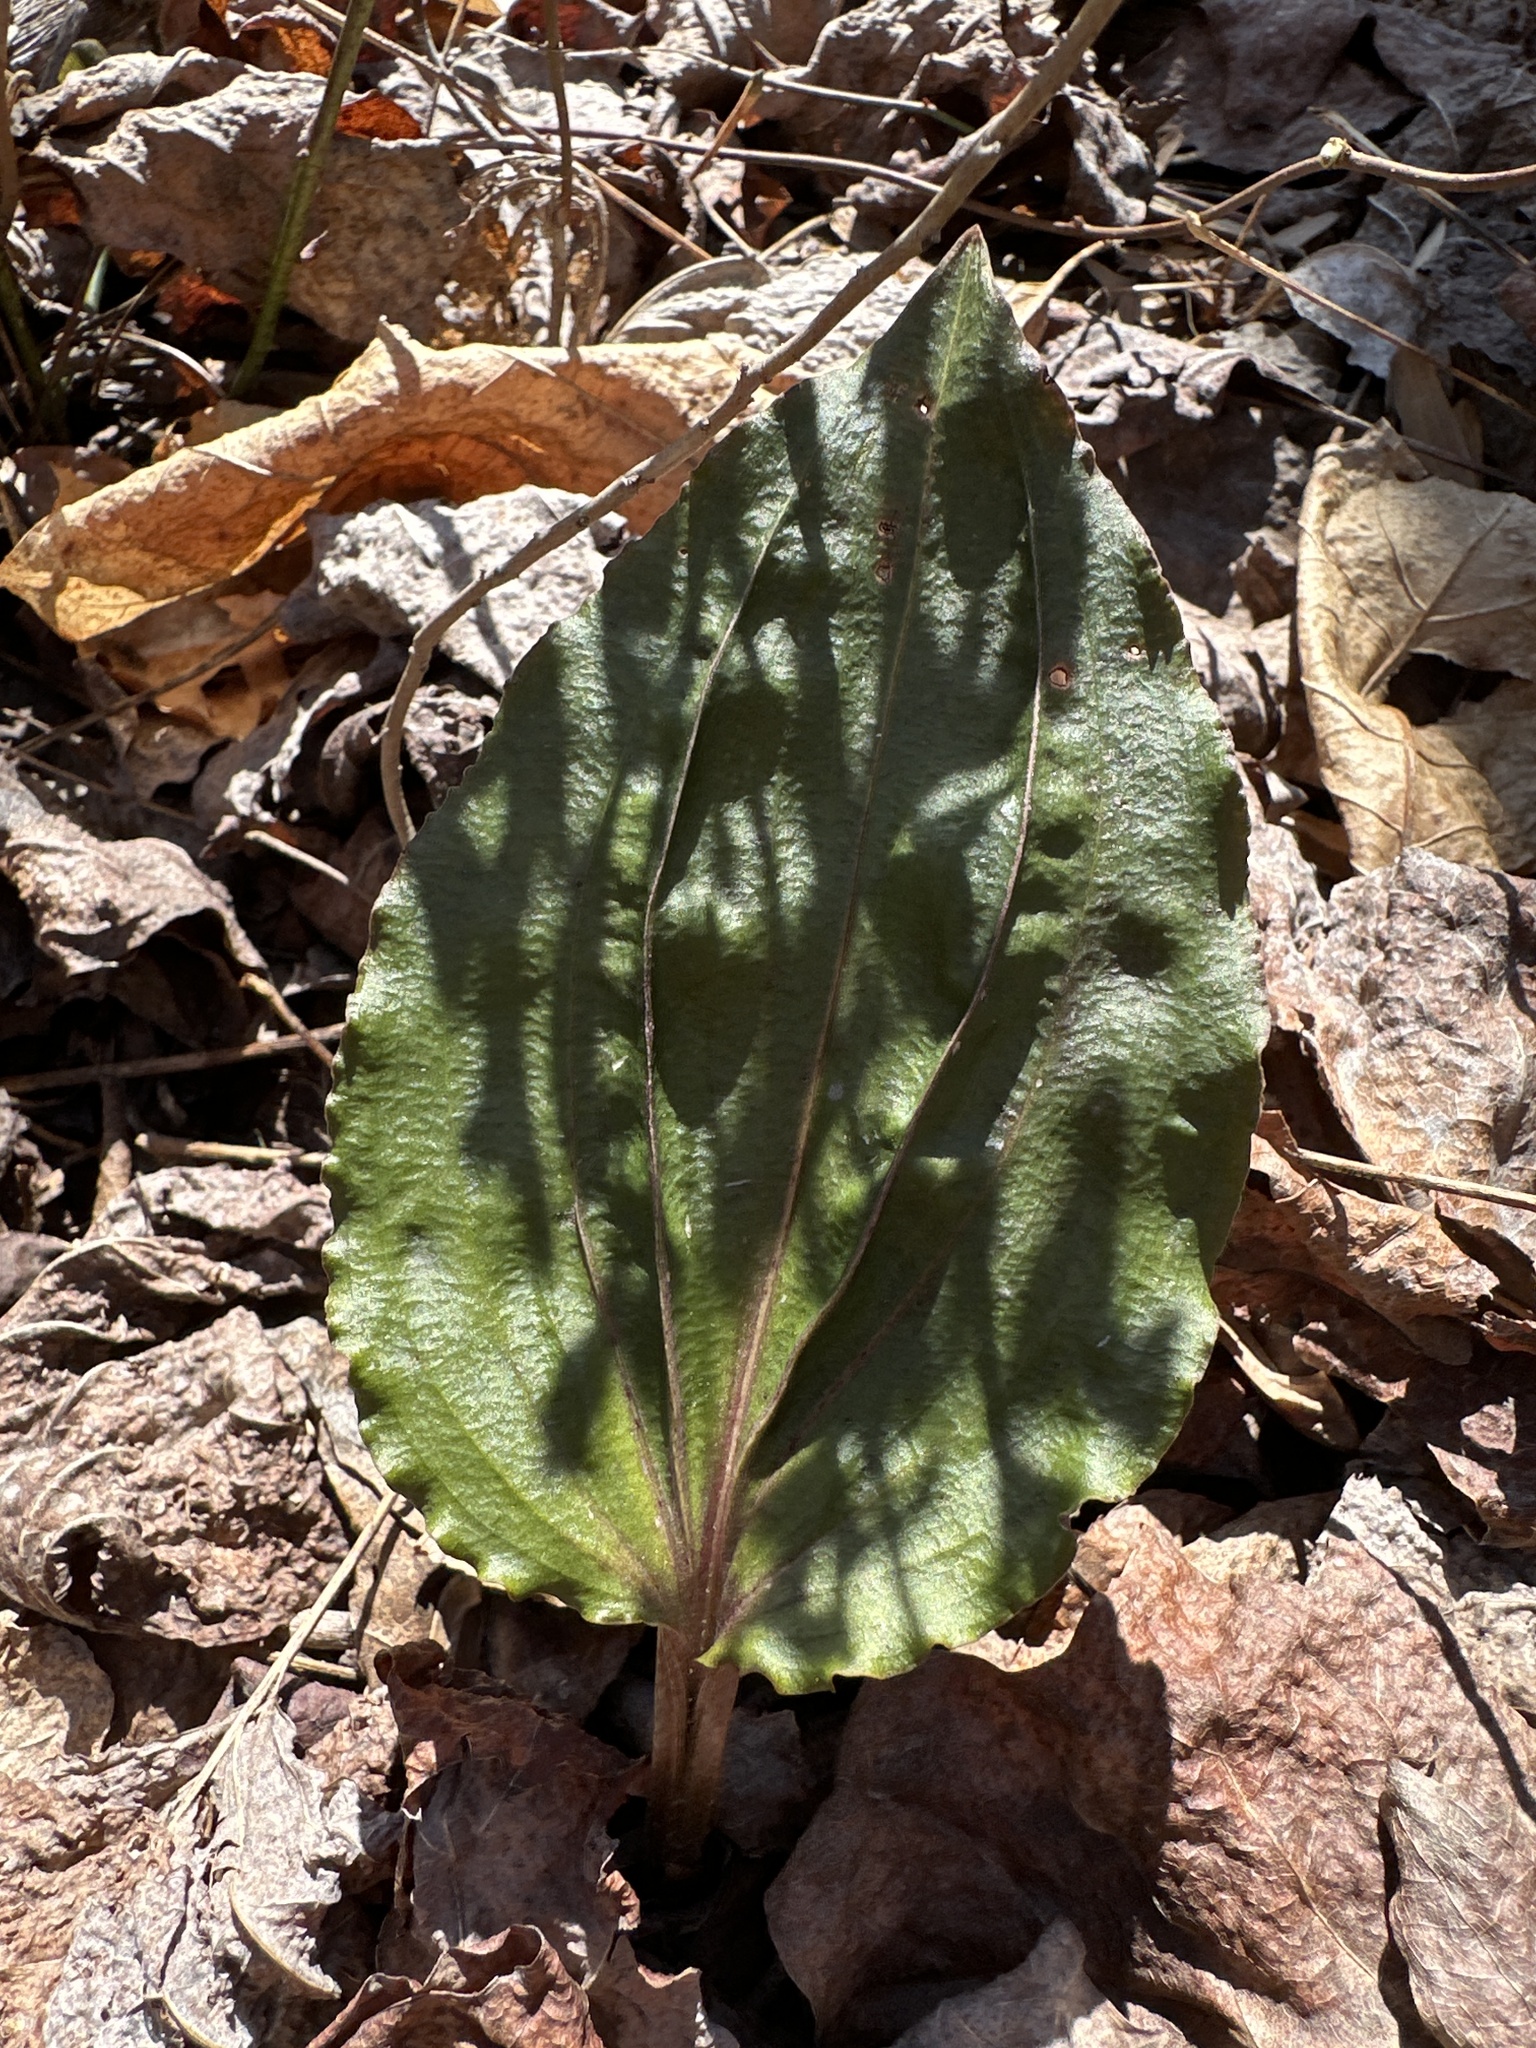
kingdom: Plantae
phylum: Tracheophyta
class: Liliopsida
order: Asparagales
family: Orchidaceae
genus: Tipularia
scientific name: Tipularia discolor
